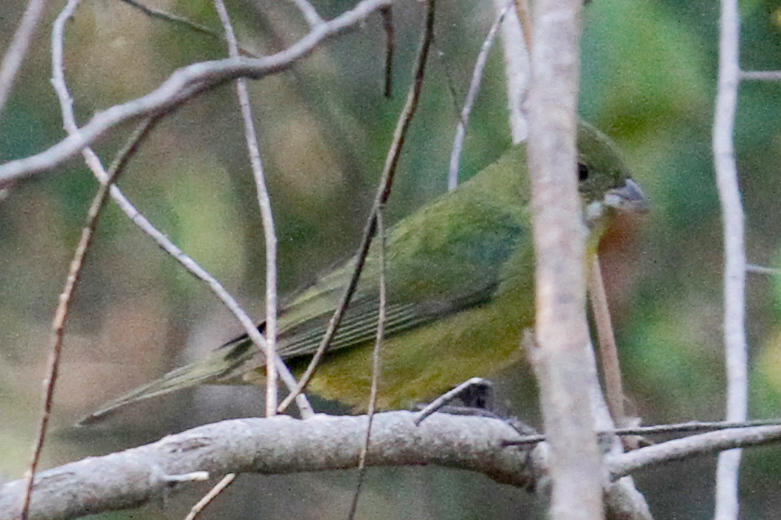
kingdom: Animalia
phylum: Chordata
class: Aves
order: Passeriformes
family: Cardinalidae
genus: Passerina
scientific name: Passerina ciris
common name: Painted bunting
